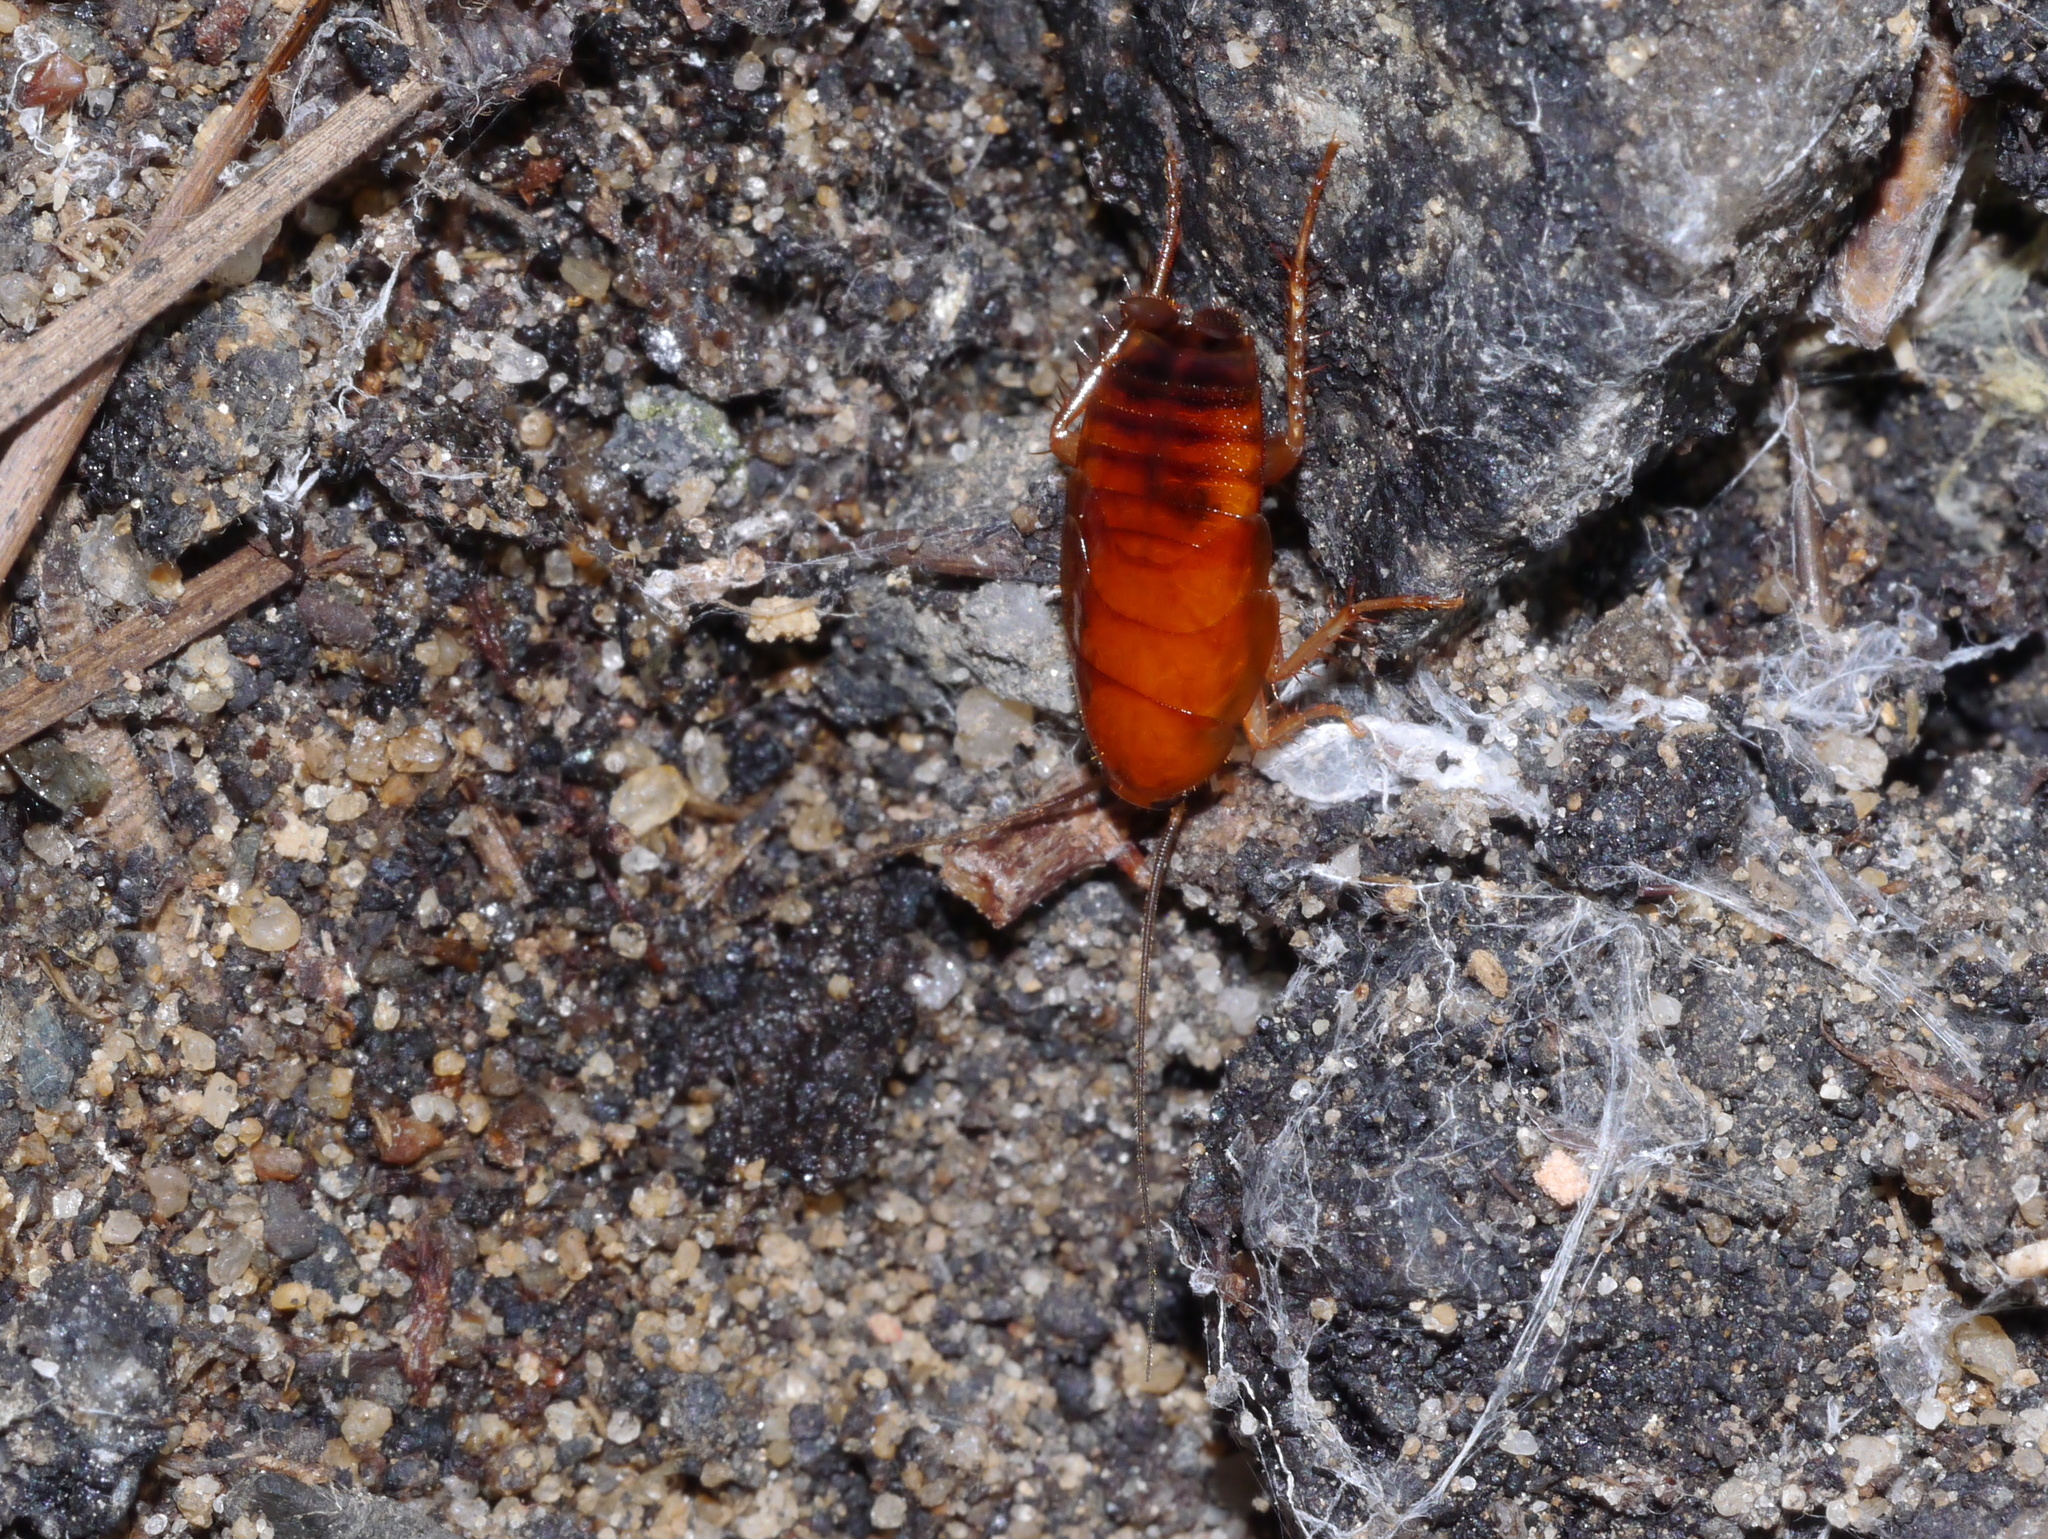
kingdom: Animalia
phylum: Arthropoda
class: Insecta
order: Blattodea
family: Ectobiidae
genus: Parcoblatta
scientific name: Parcoblatta
